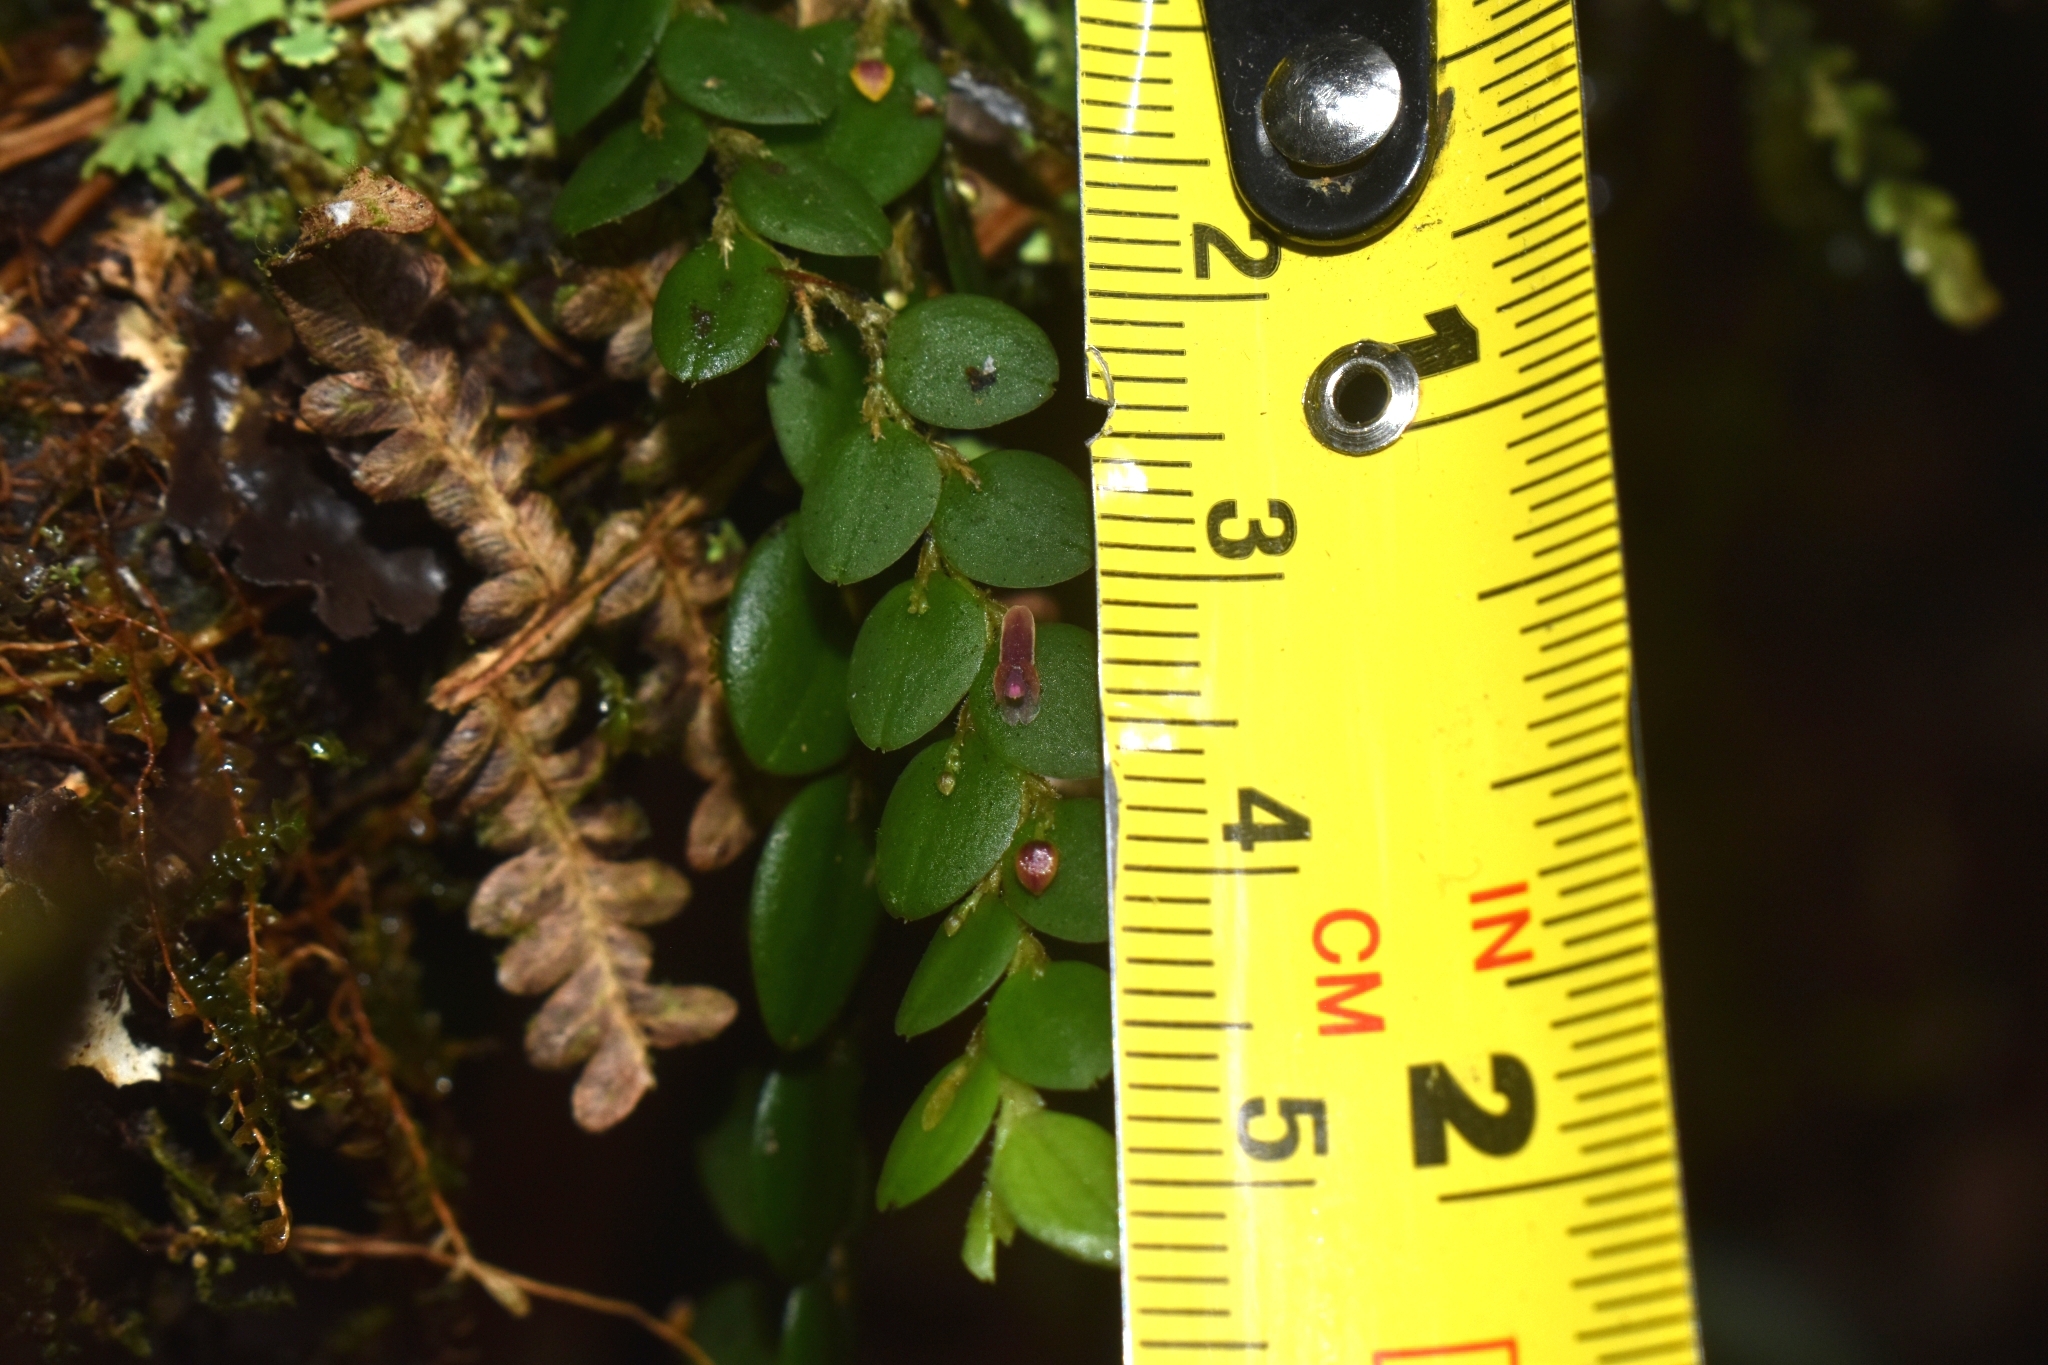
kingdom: Plantae
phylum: Tracheophyta
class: Liliopsida
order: Asparagales
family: Orchidaceae
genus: Andinia
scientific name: Andinia nummularia
